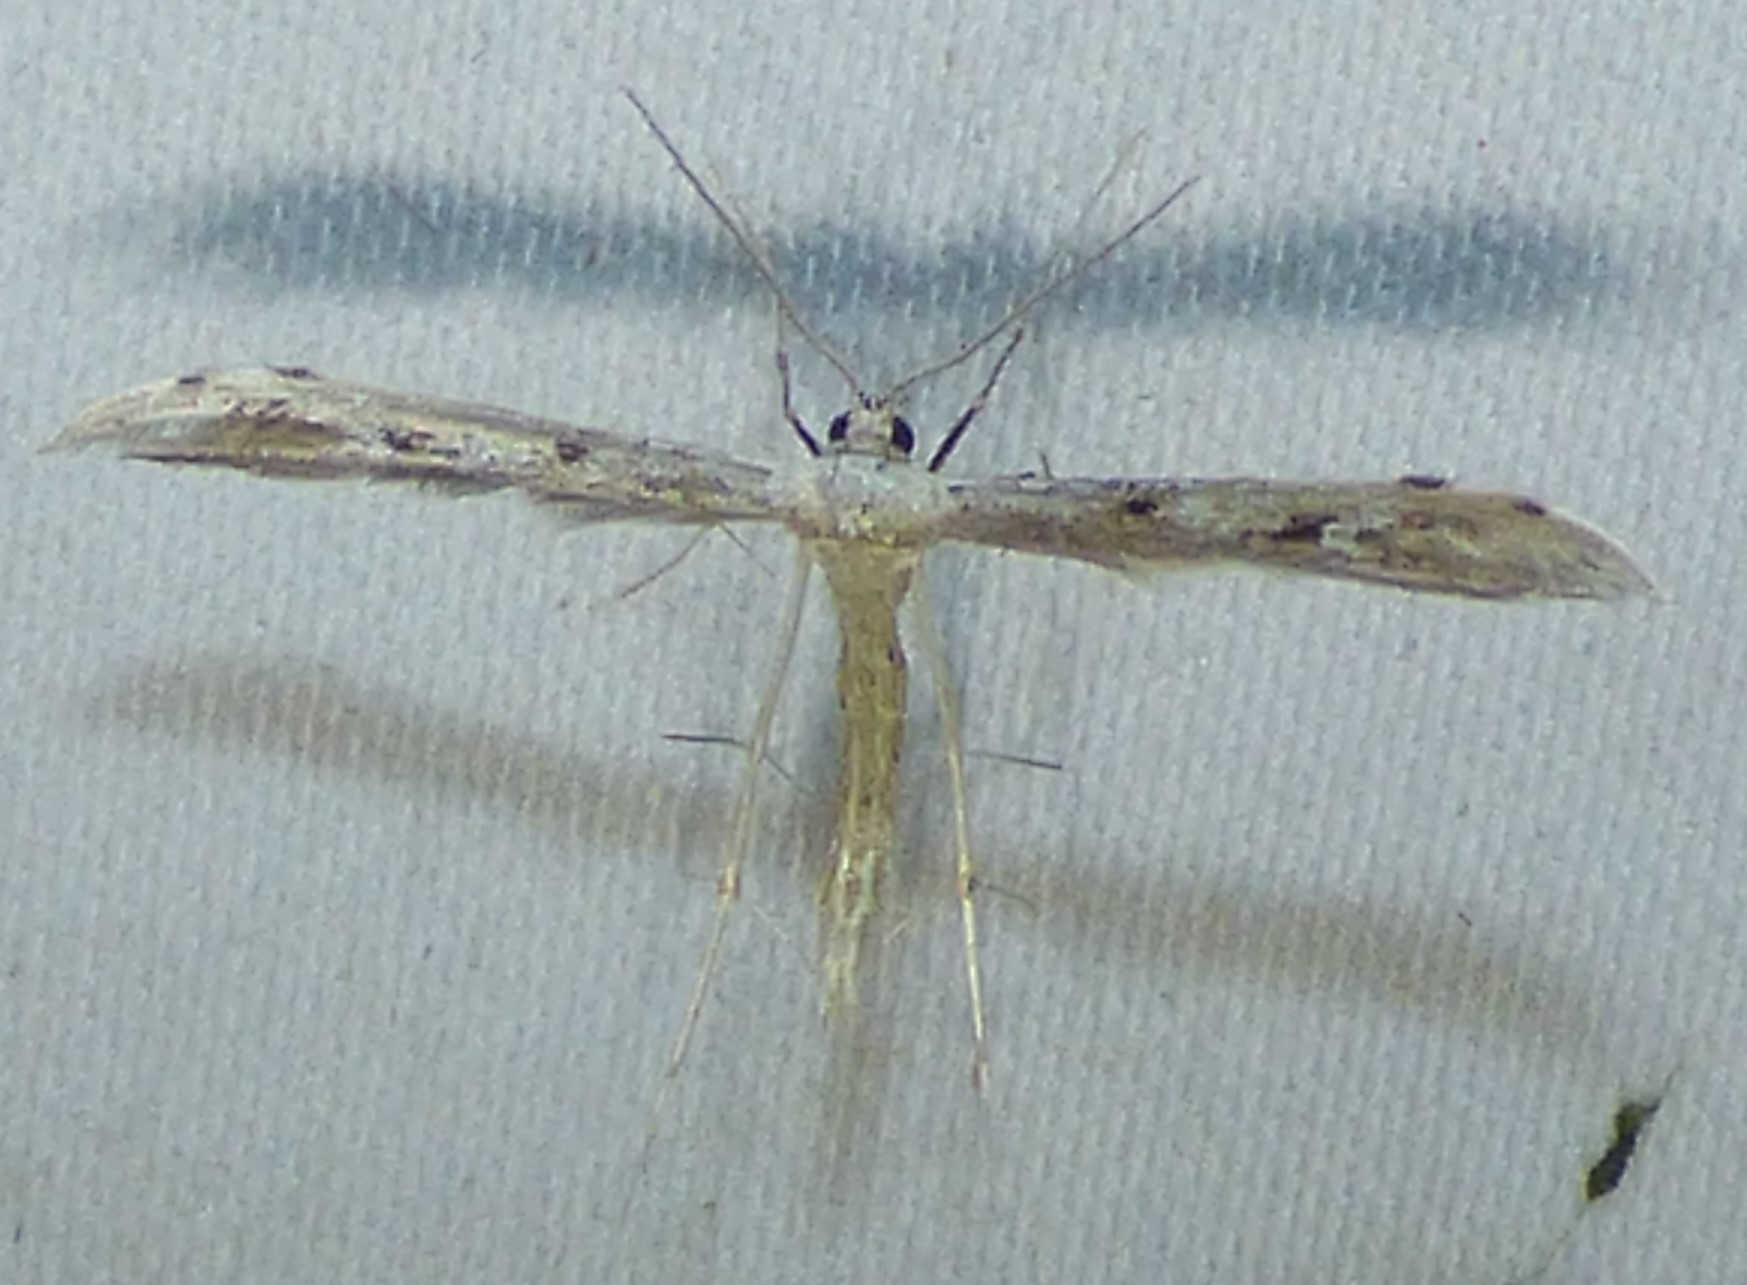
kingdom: Animalia
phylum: Arthropoda
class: Insecta
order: Lepidoptera
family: Pterophoridae
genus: Pselnophorus
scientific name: Pselnophorus belfragei
